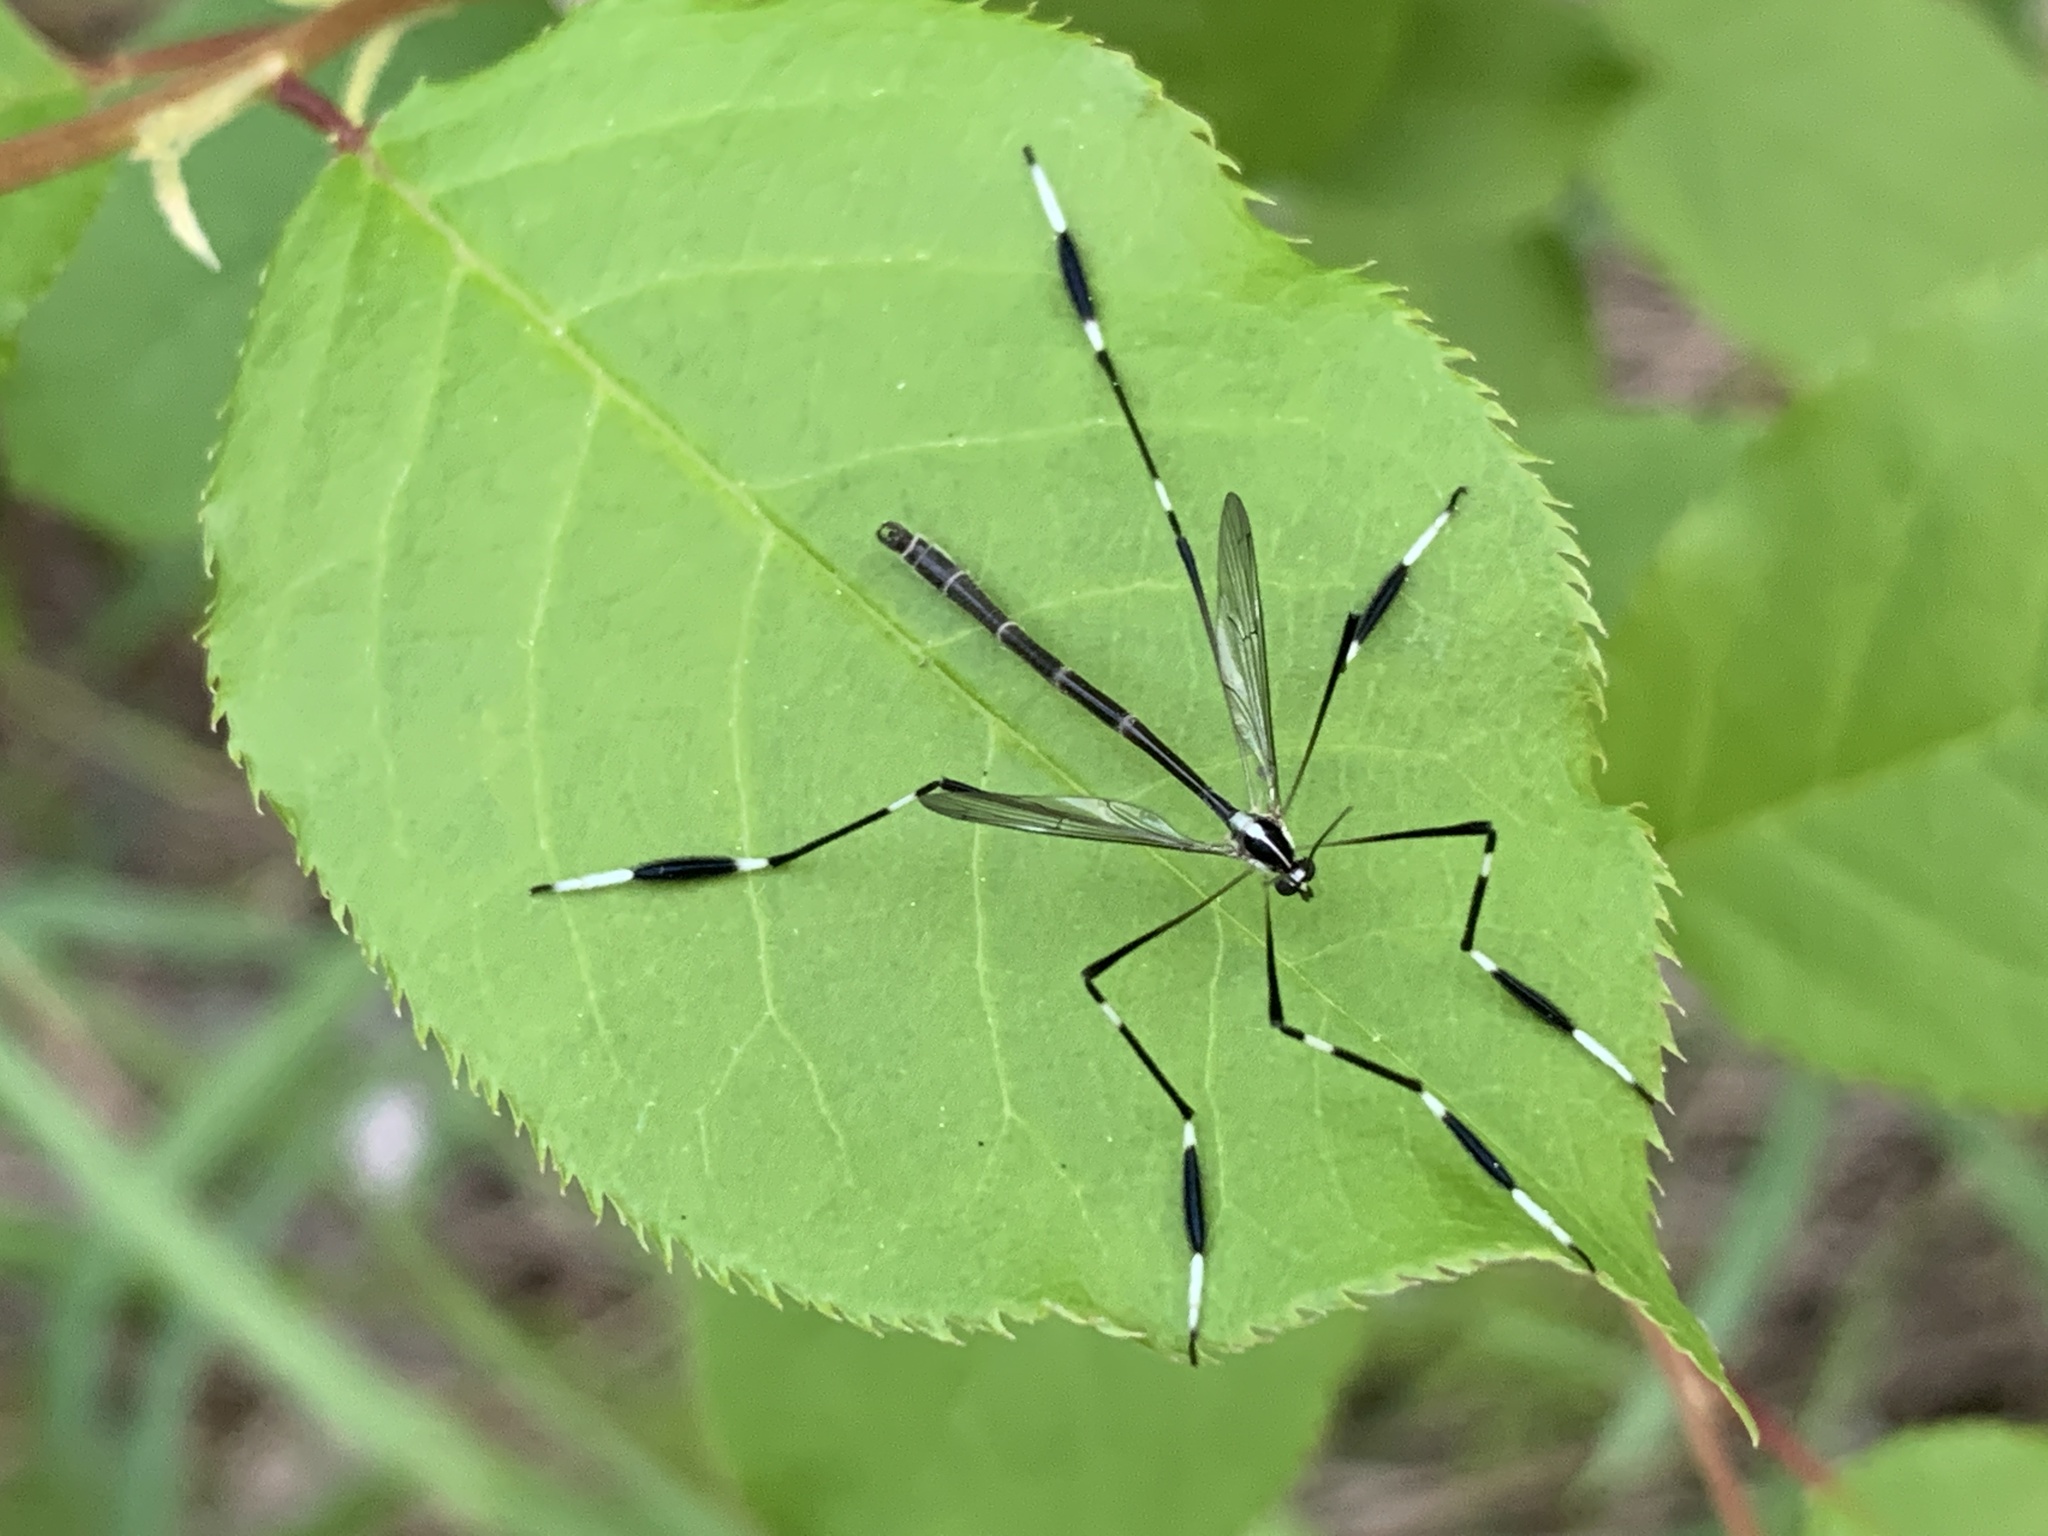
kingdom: Animalia
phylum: Arthropoda
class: Insecta
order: Diptera
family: Ptychopteridae
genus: Bittacomorpha
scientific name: Bittacomorpha clavipes
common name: Eastern phantom crane fly
